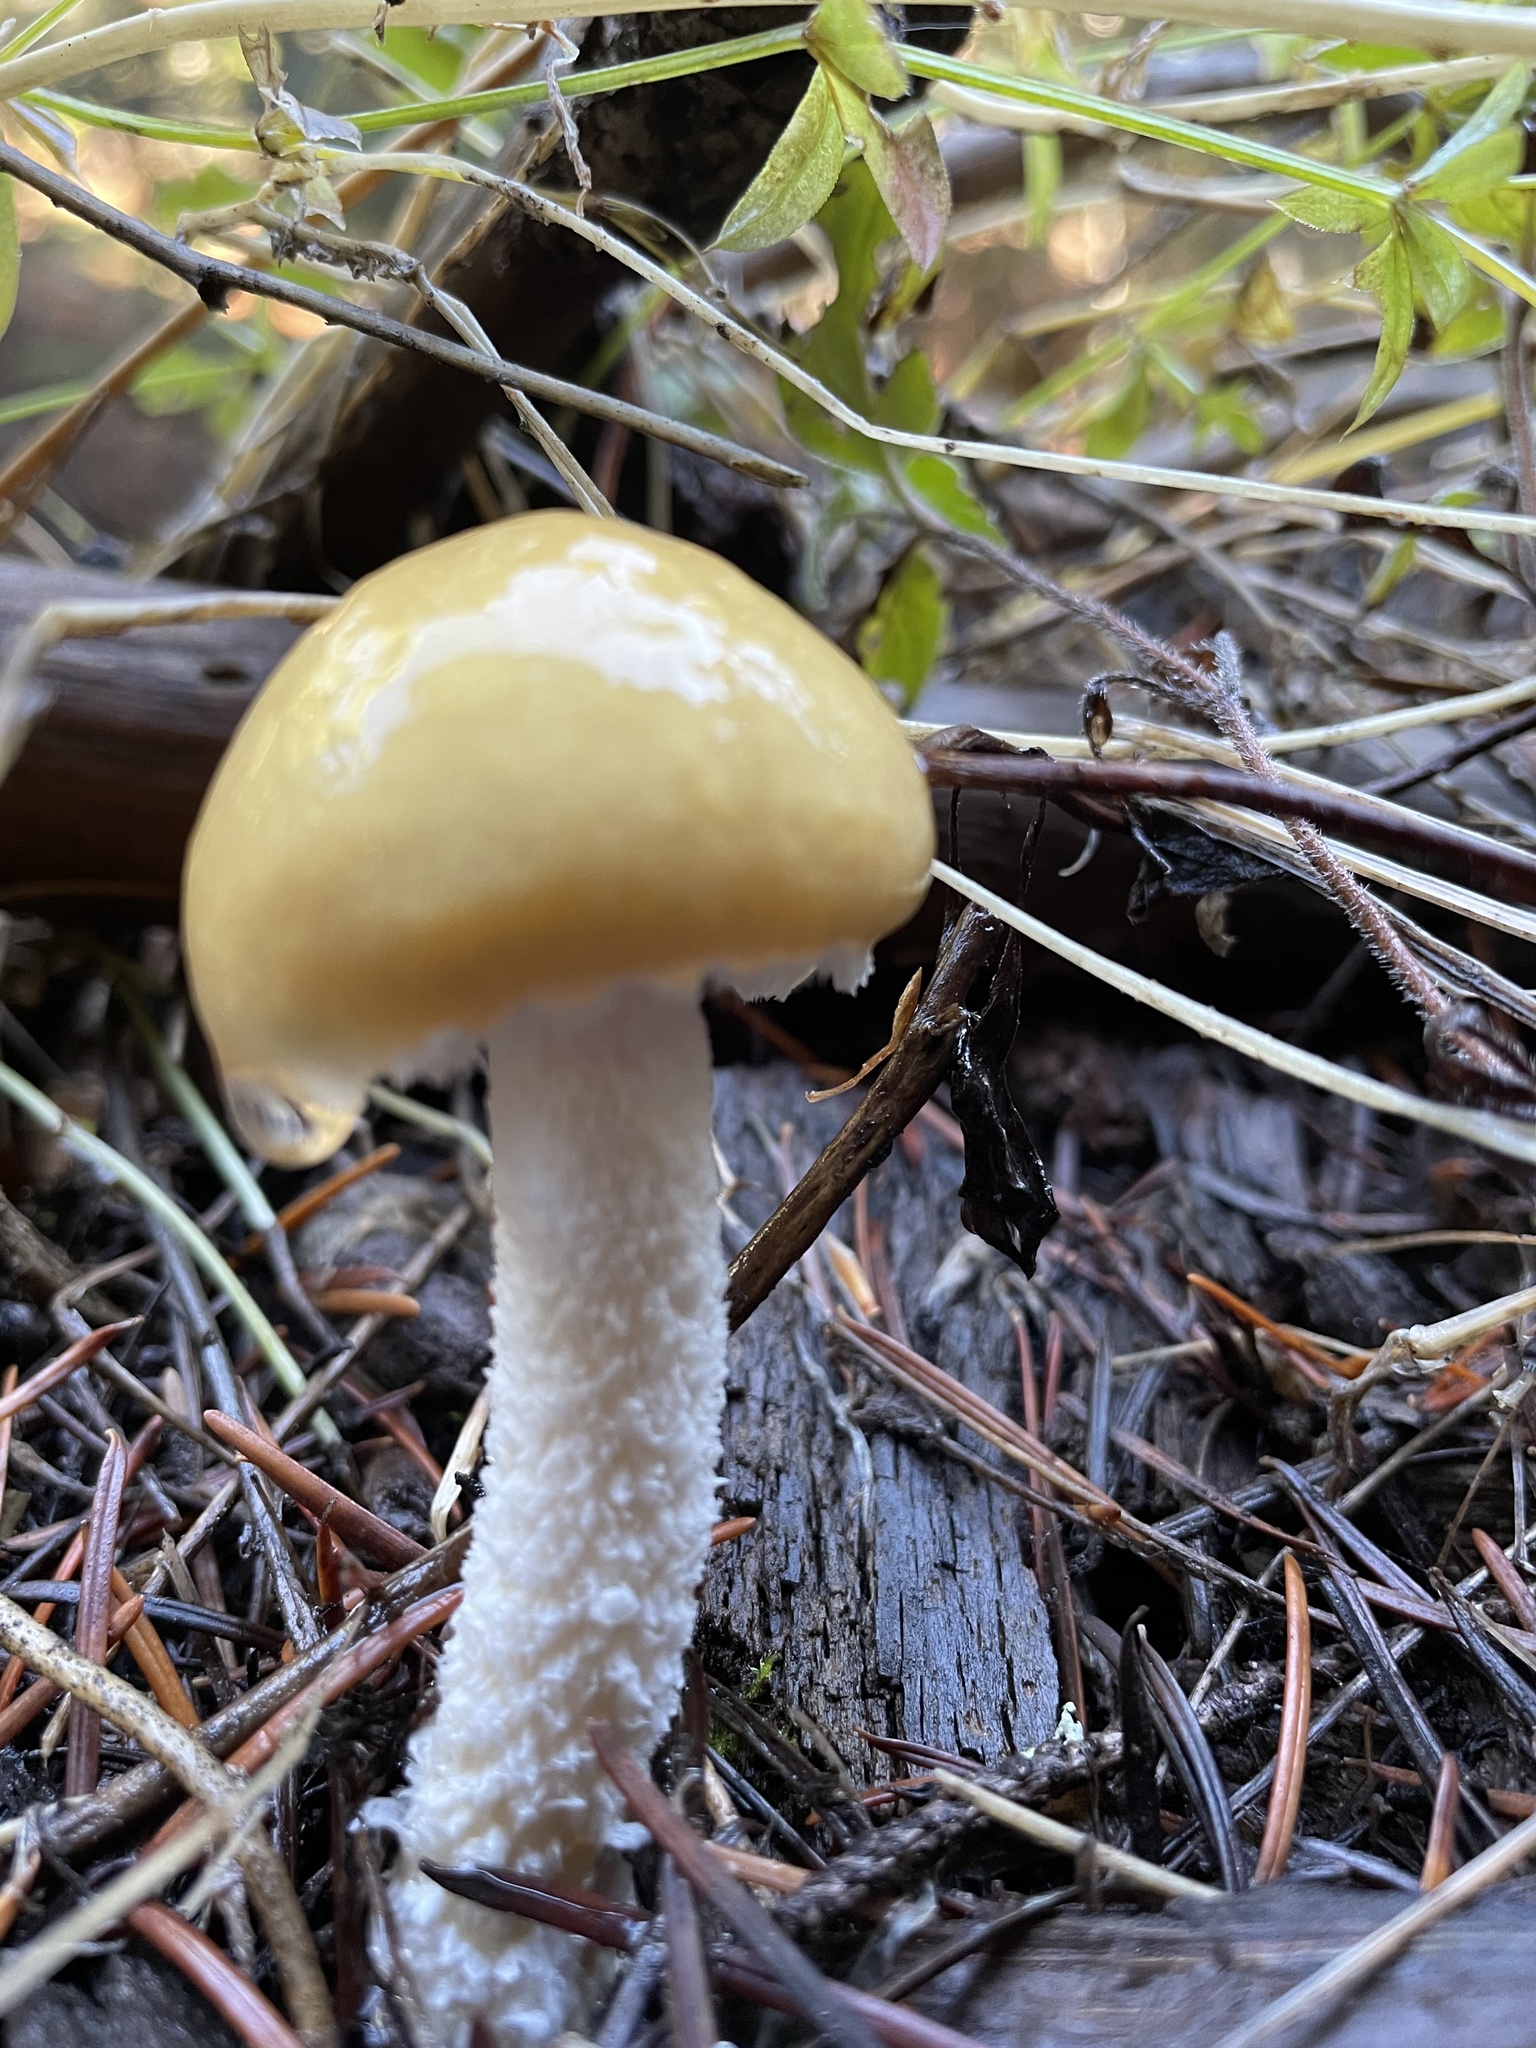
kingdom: Fungi
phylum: Basidiomycota
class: Agaricomycetes
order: Agaricales
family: Strophariaceae
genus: Stropharia
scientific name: Stropharia ambigua
